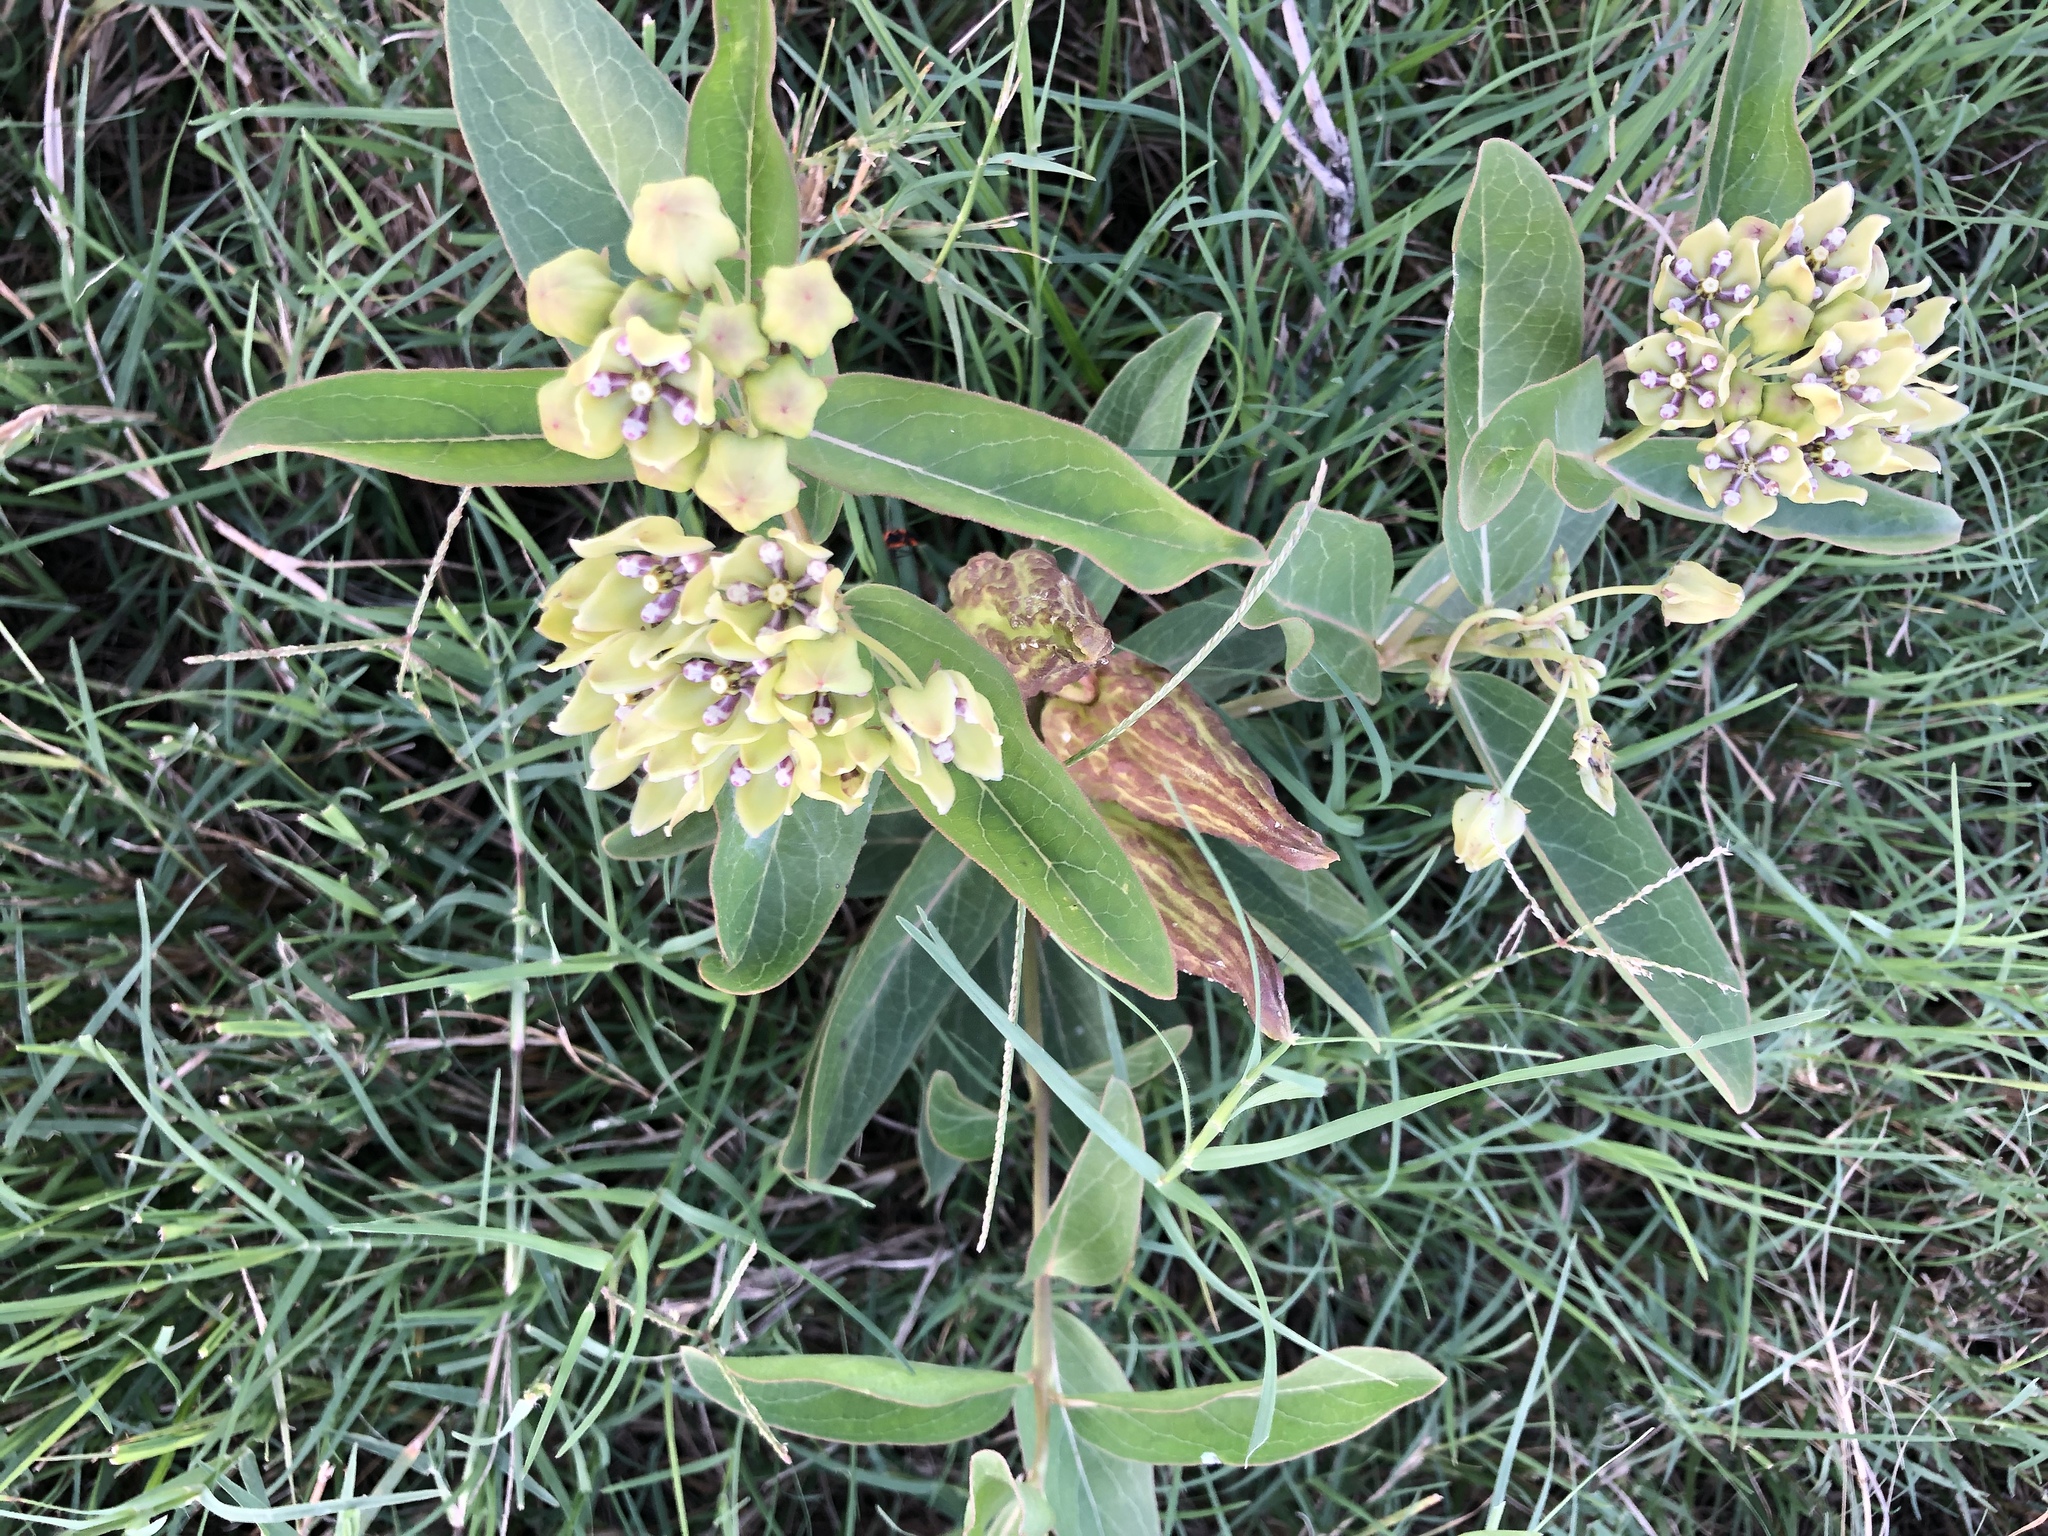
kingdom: Plantae
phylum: Tracheophyta
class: Magnoliopsida
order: Gentianales
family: Apocynaceae
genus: Asclepias
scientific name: Asclepias viridis
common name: Antelope-horns
